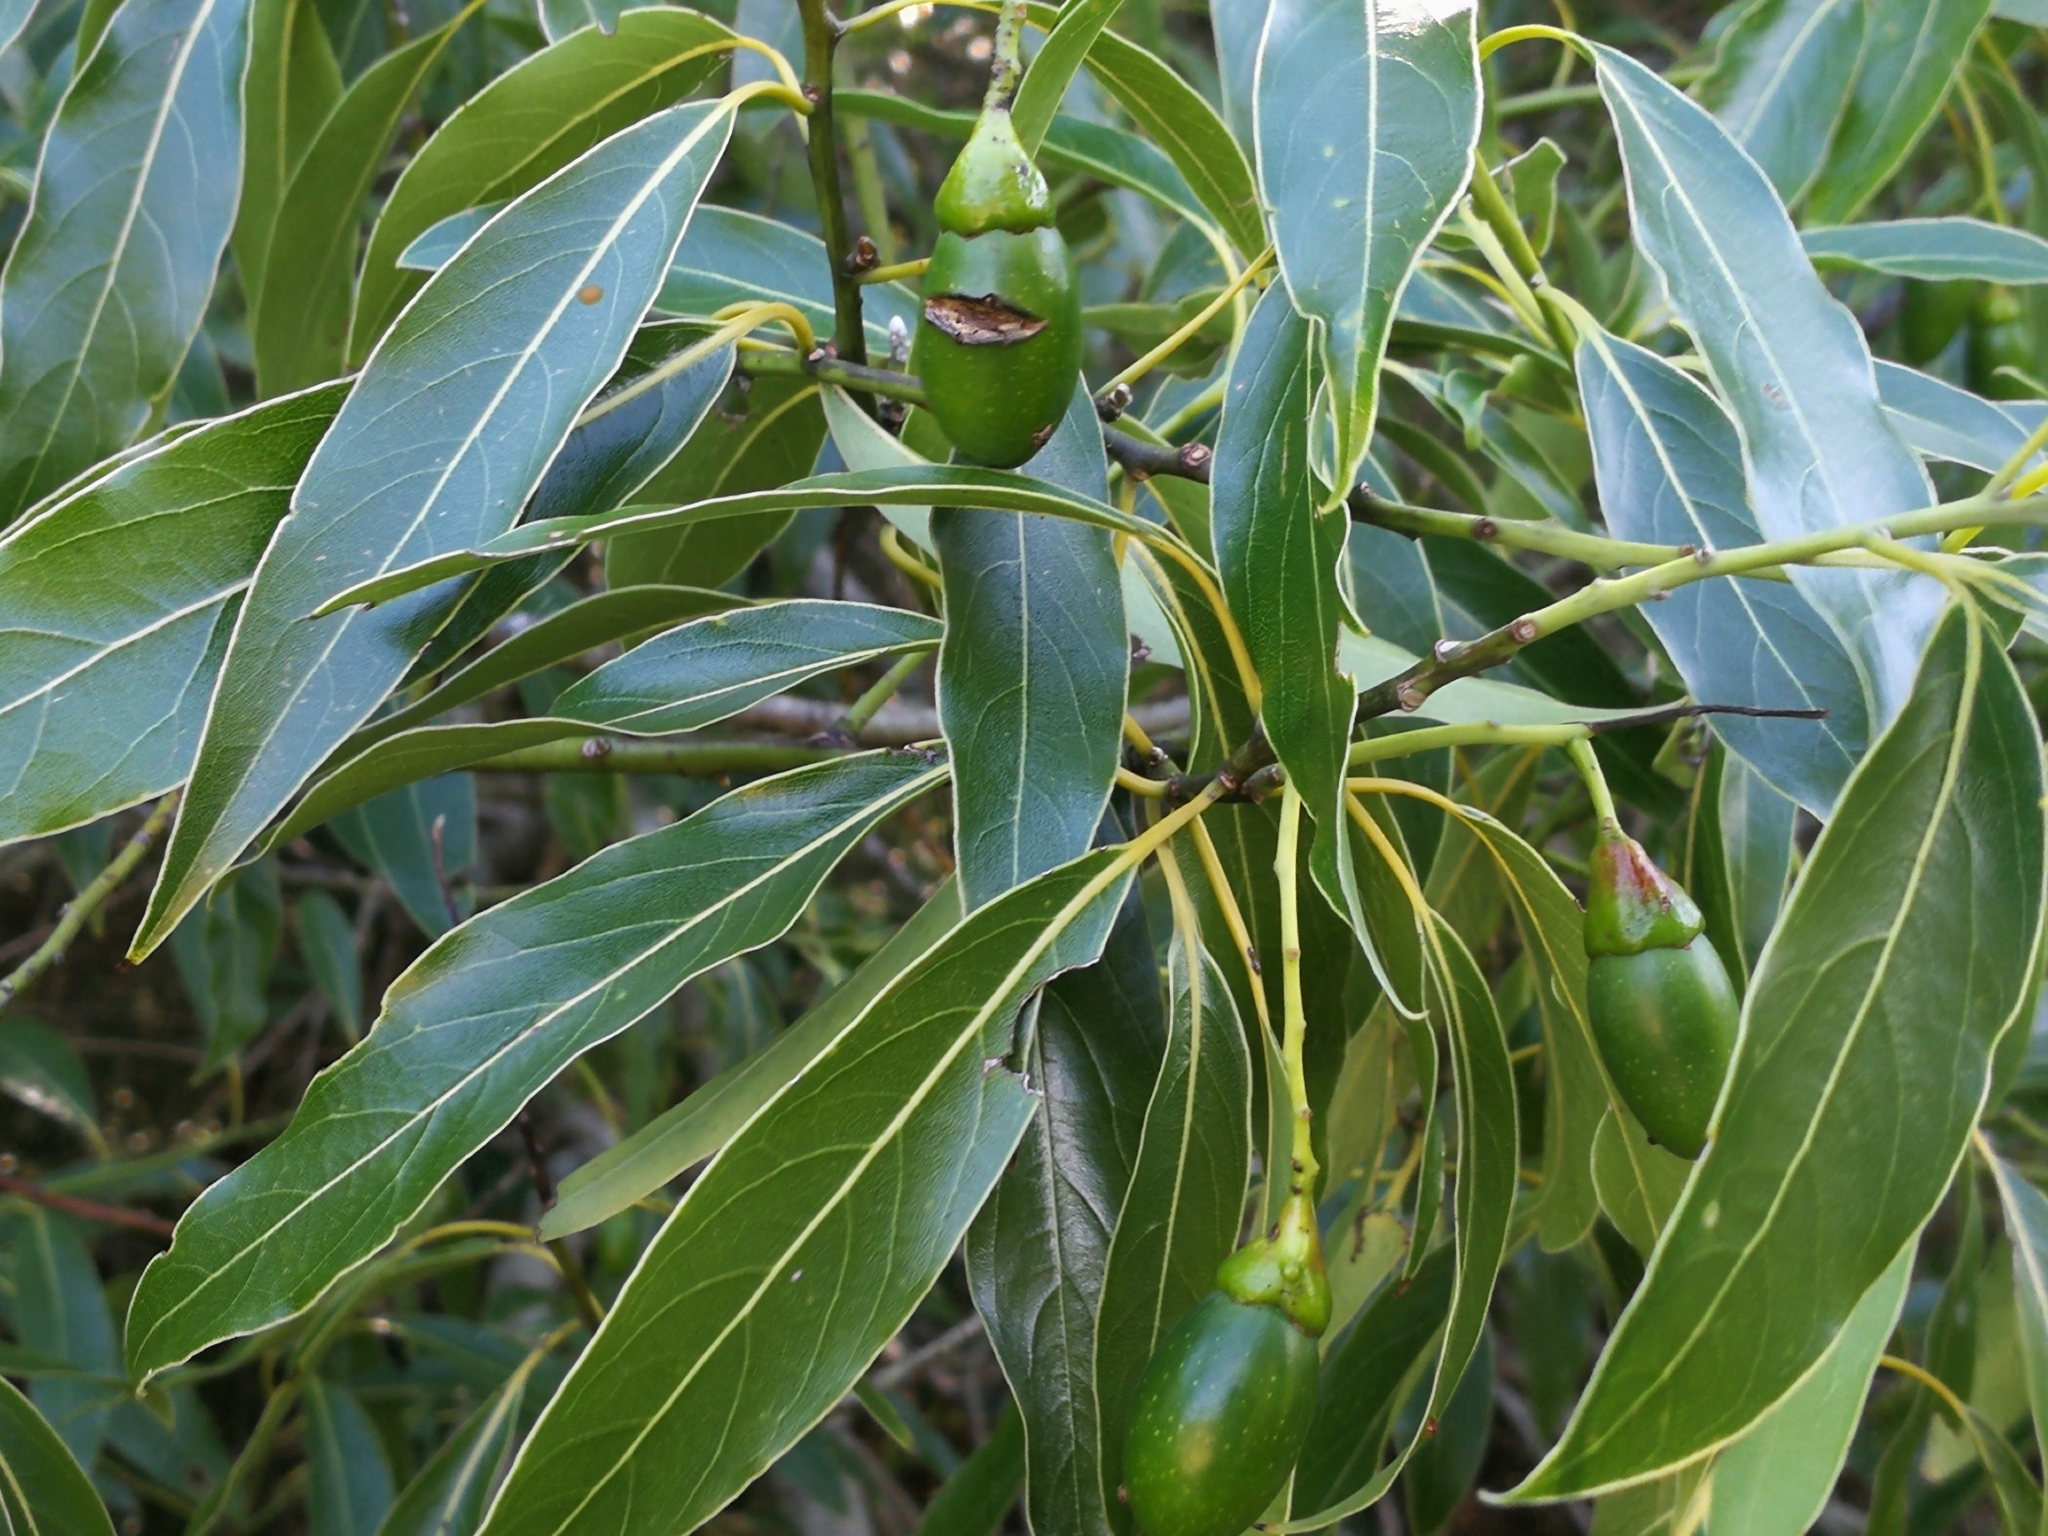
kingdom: Plantae
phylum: Tracheophyta
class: Magnoliopsida
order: Laurales
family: Lauraceae
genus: Ocotea
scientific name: Ocotea acutifolia
